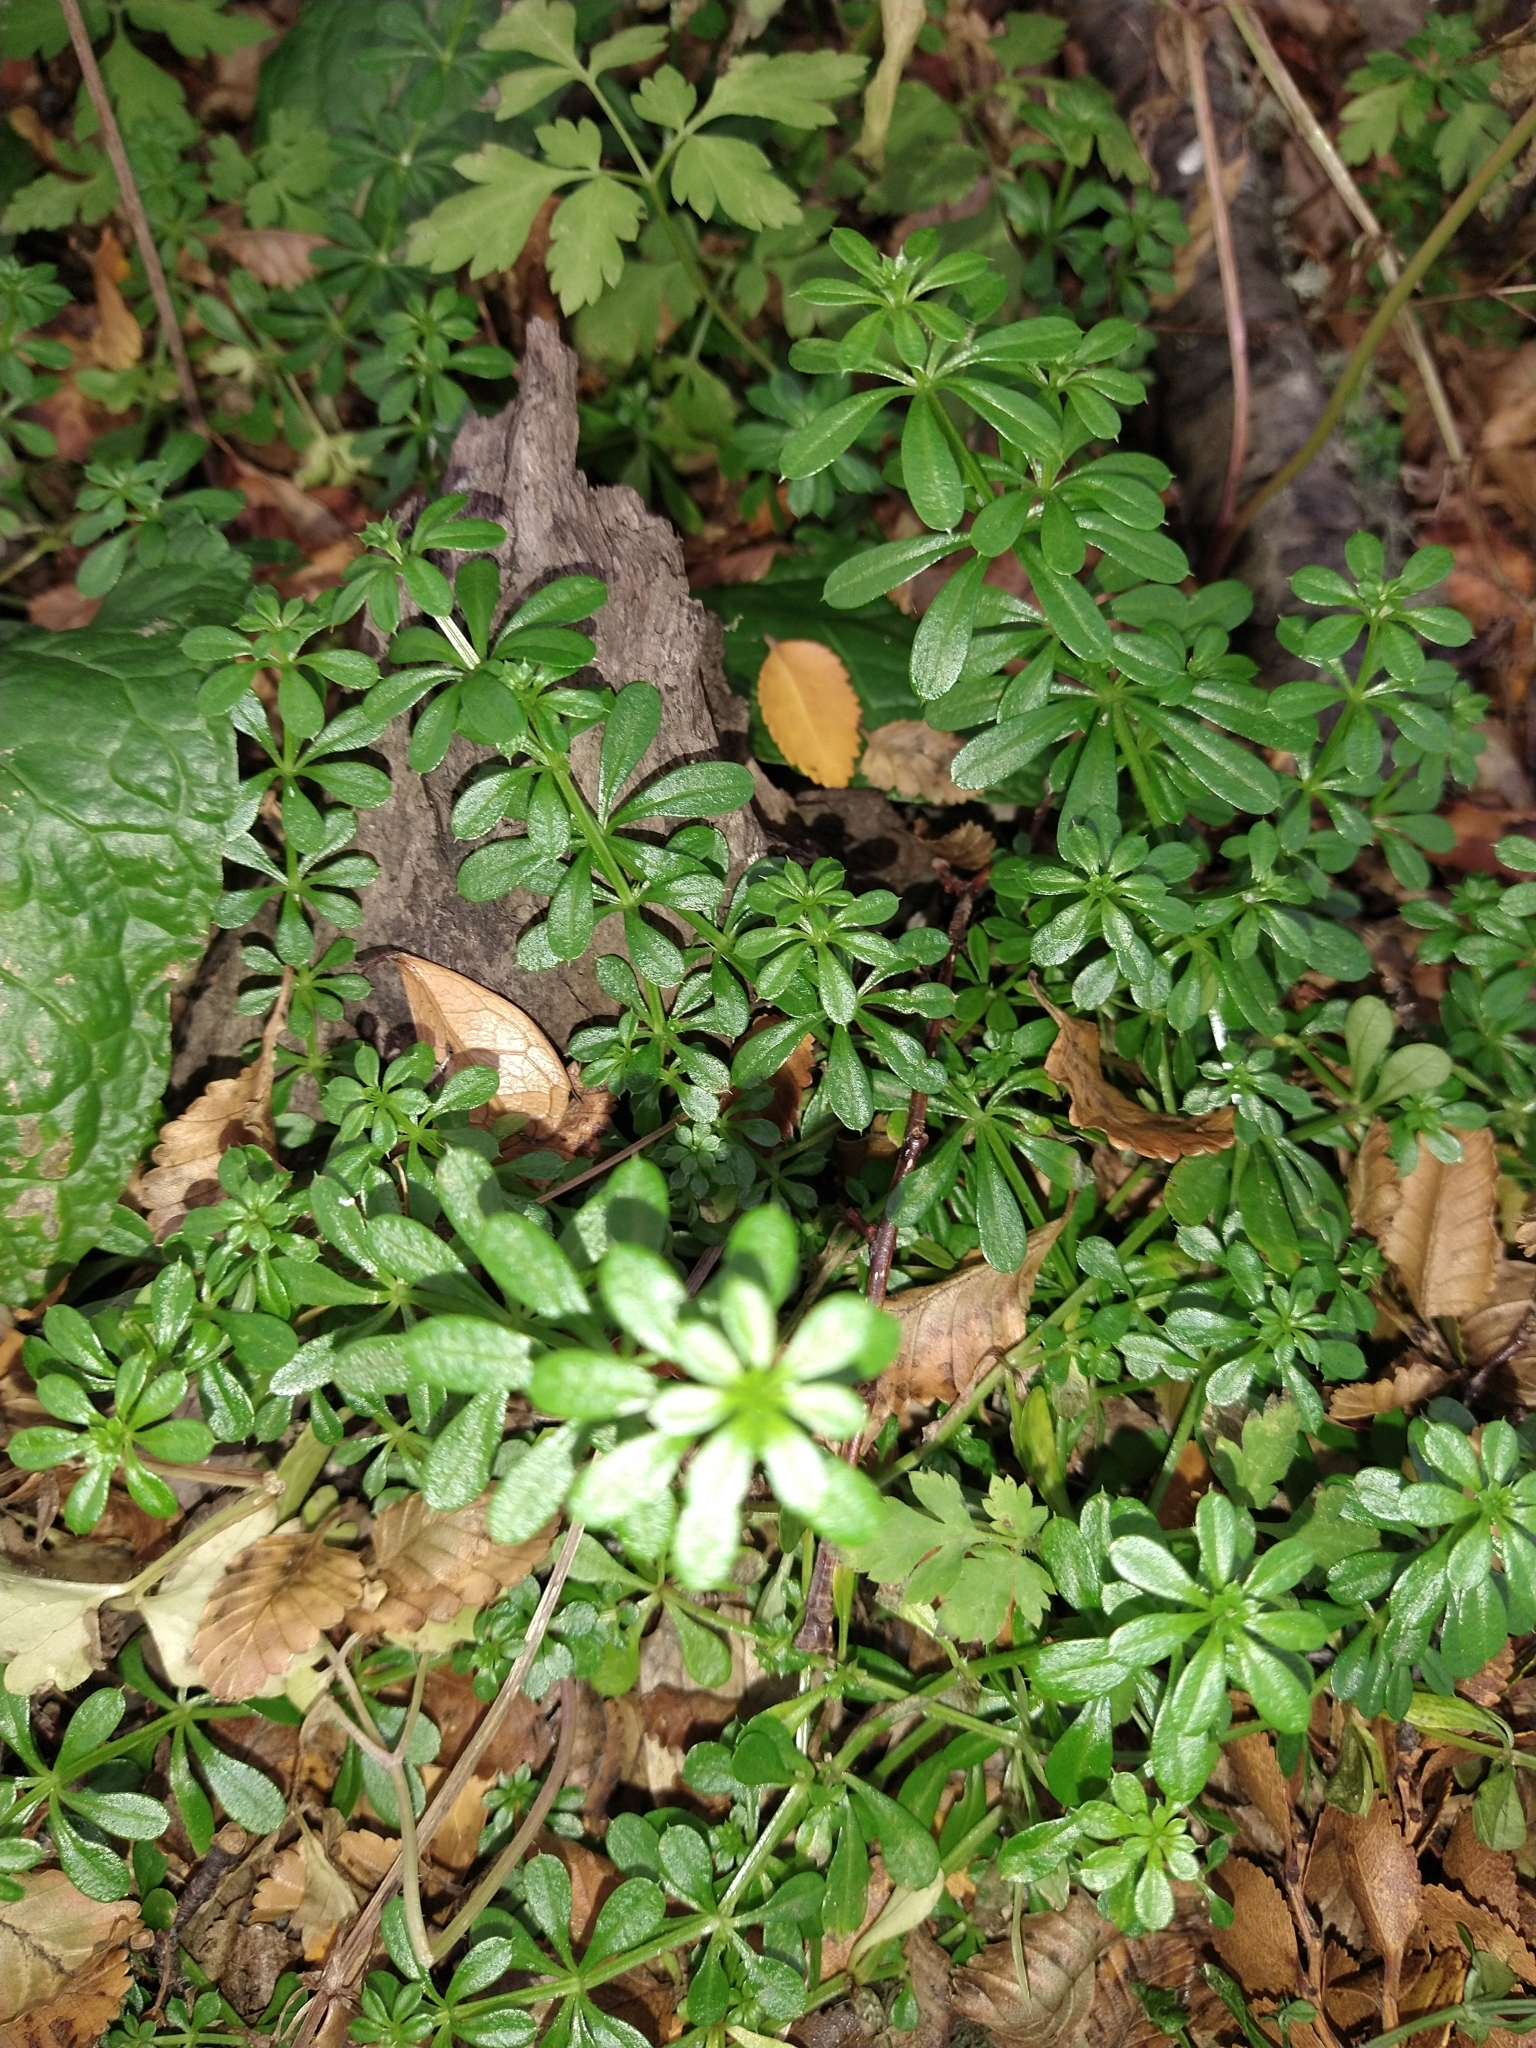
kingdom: Plantae
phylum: Tracheophyta
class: Magnoliopsida
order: Gentianales
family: Rubiaceae
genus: Galium
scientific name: Galium aparine
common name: Cleavers
